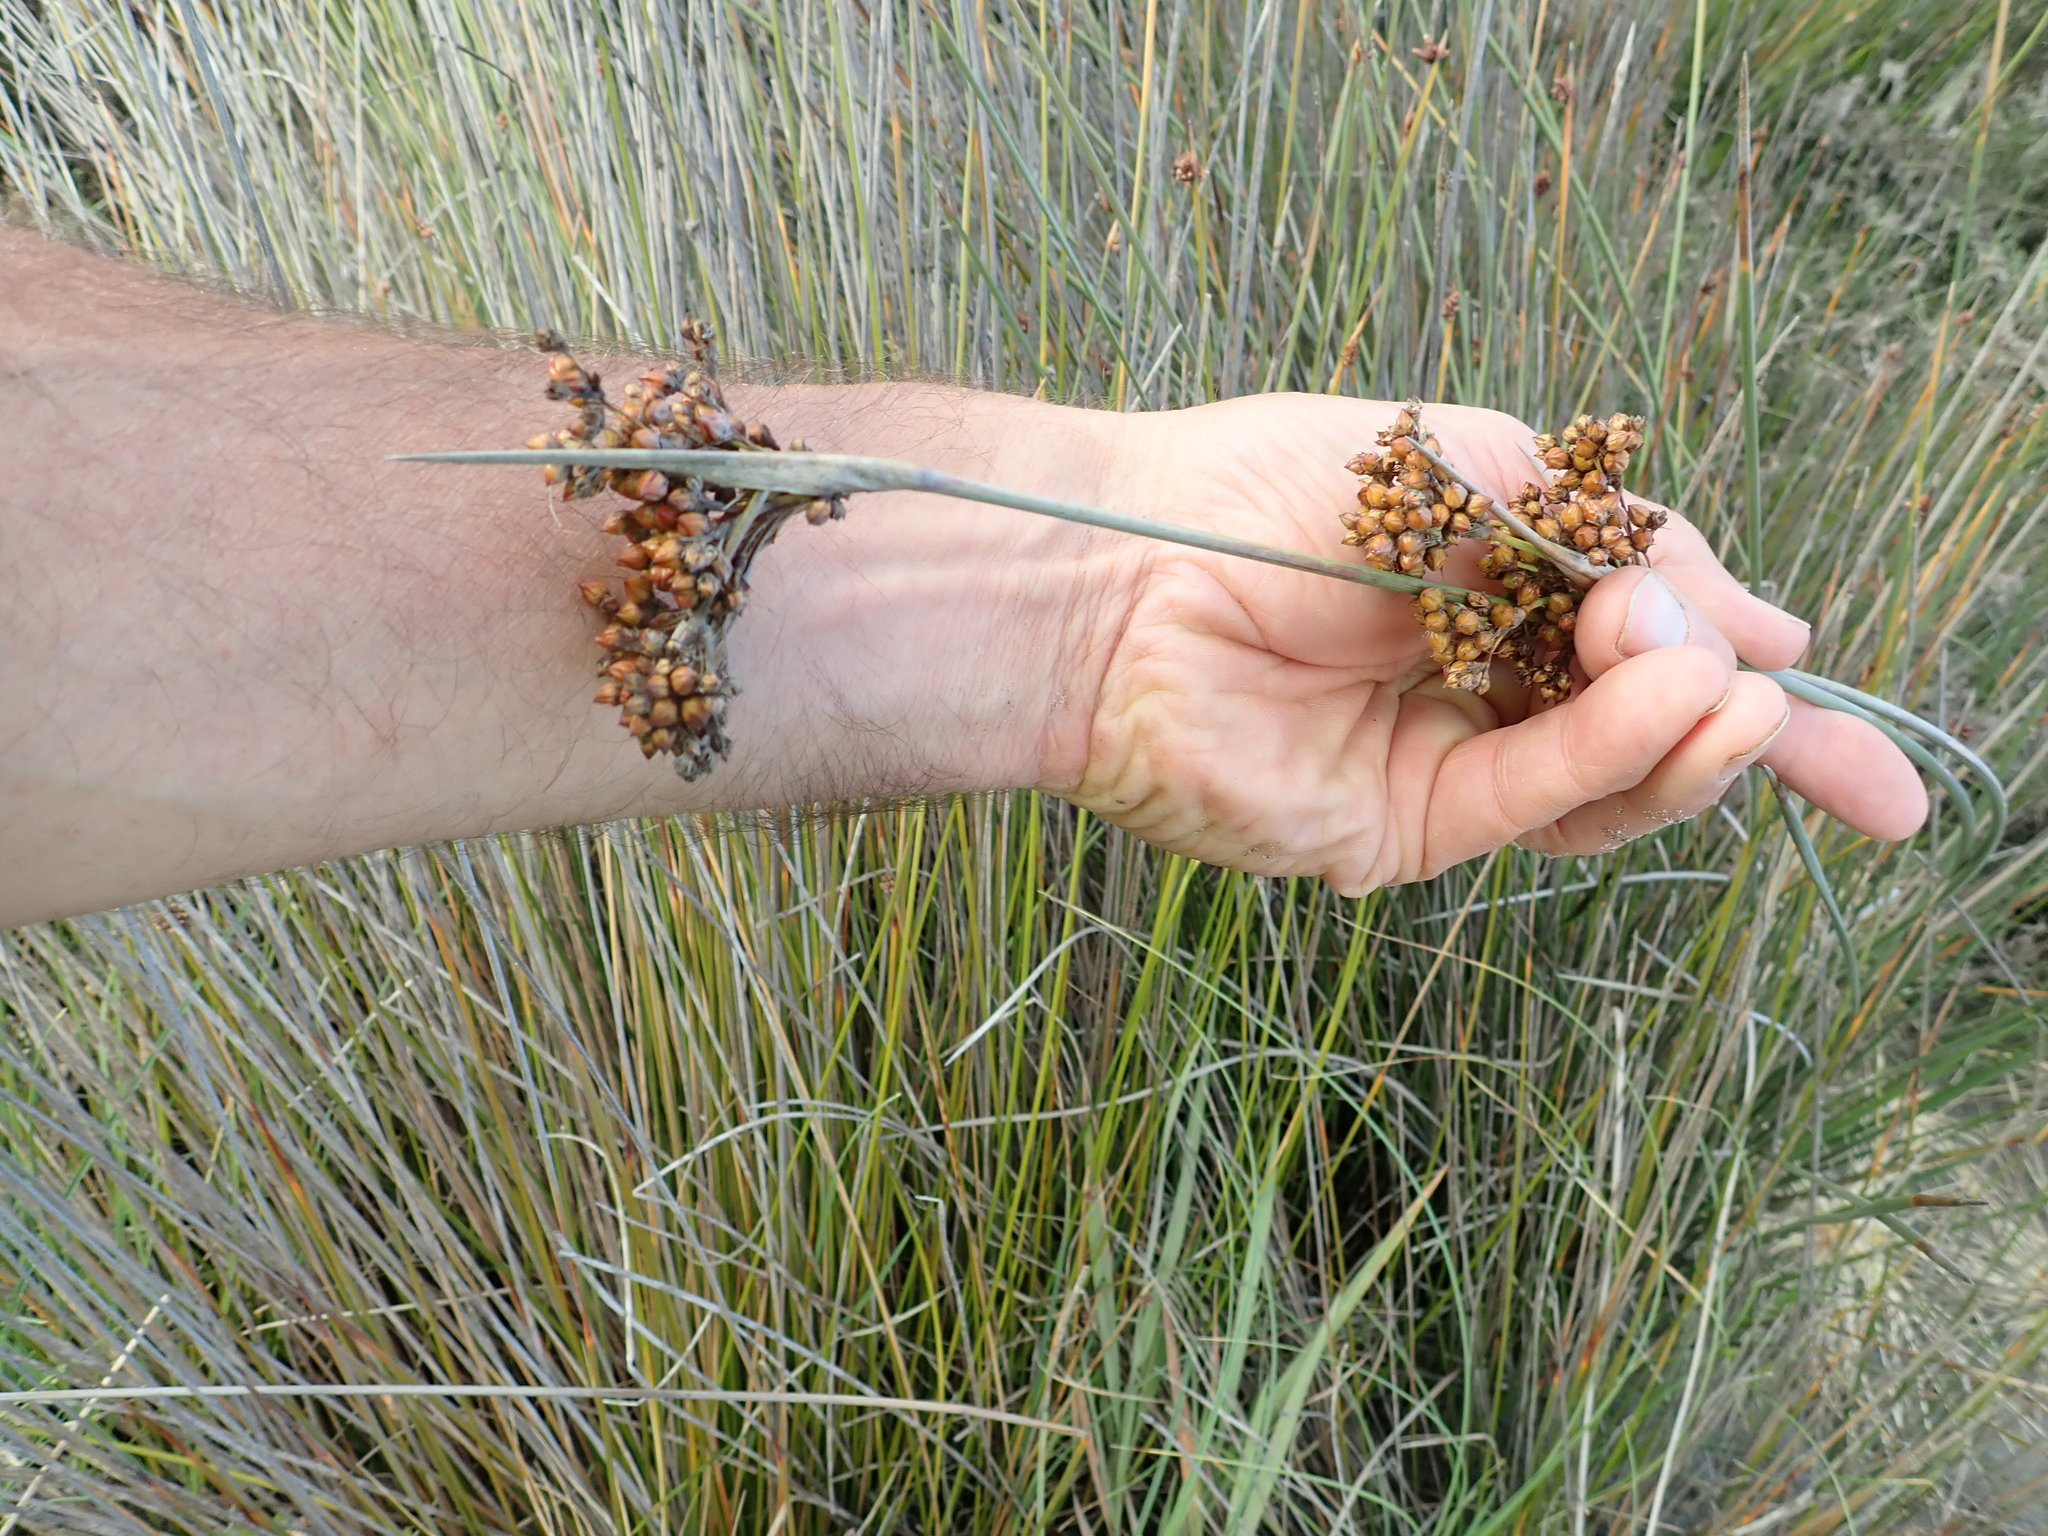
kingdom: Plantae
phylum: Tracheophyta
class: Liliopsida
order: Poales
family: Juncaceae
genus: Juncus
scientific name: Juncus acutus
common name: Sharp rush
